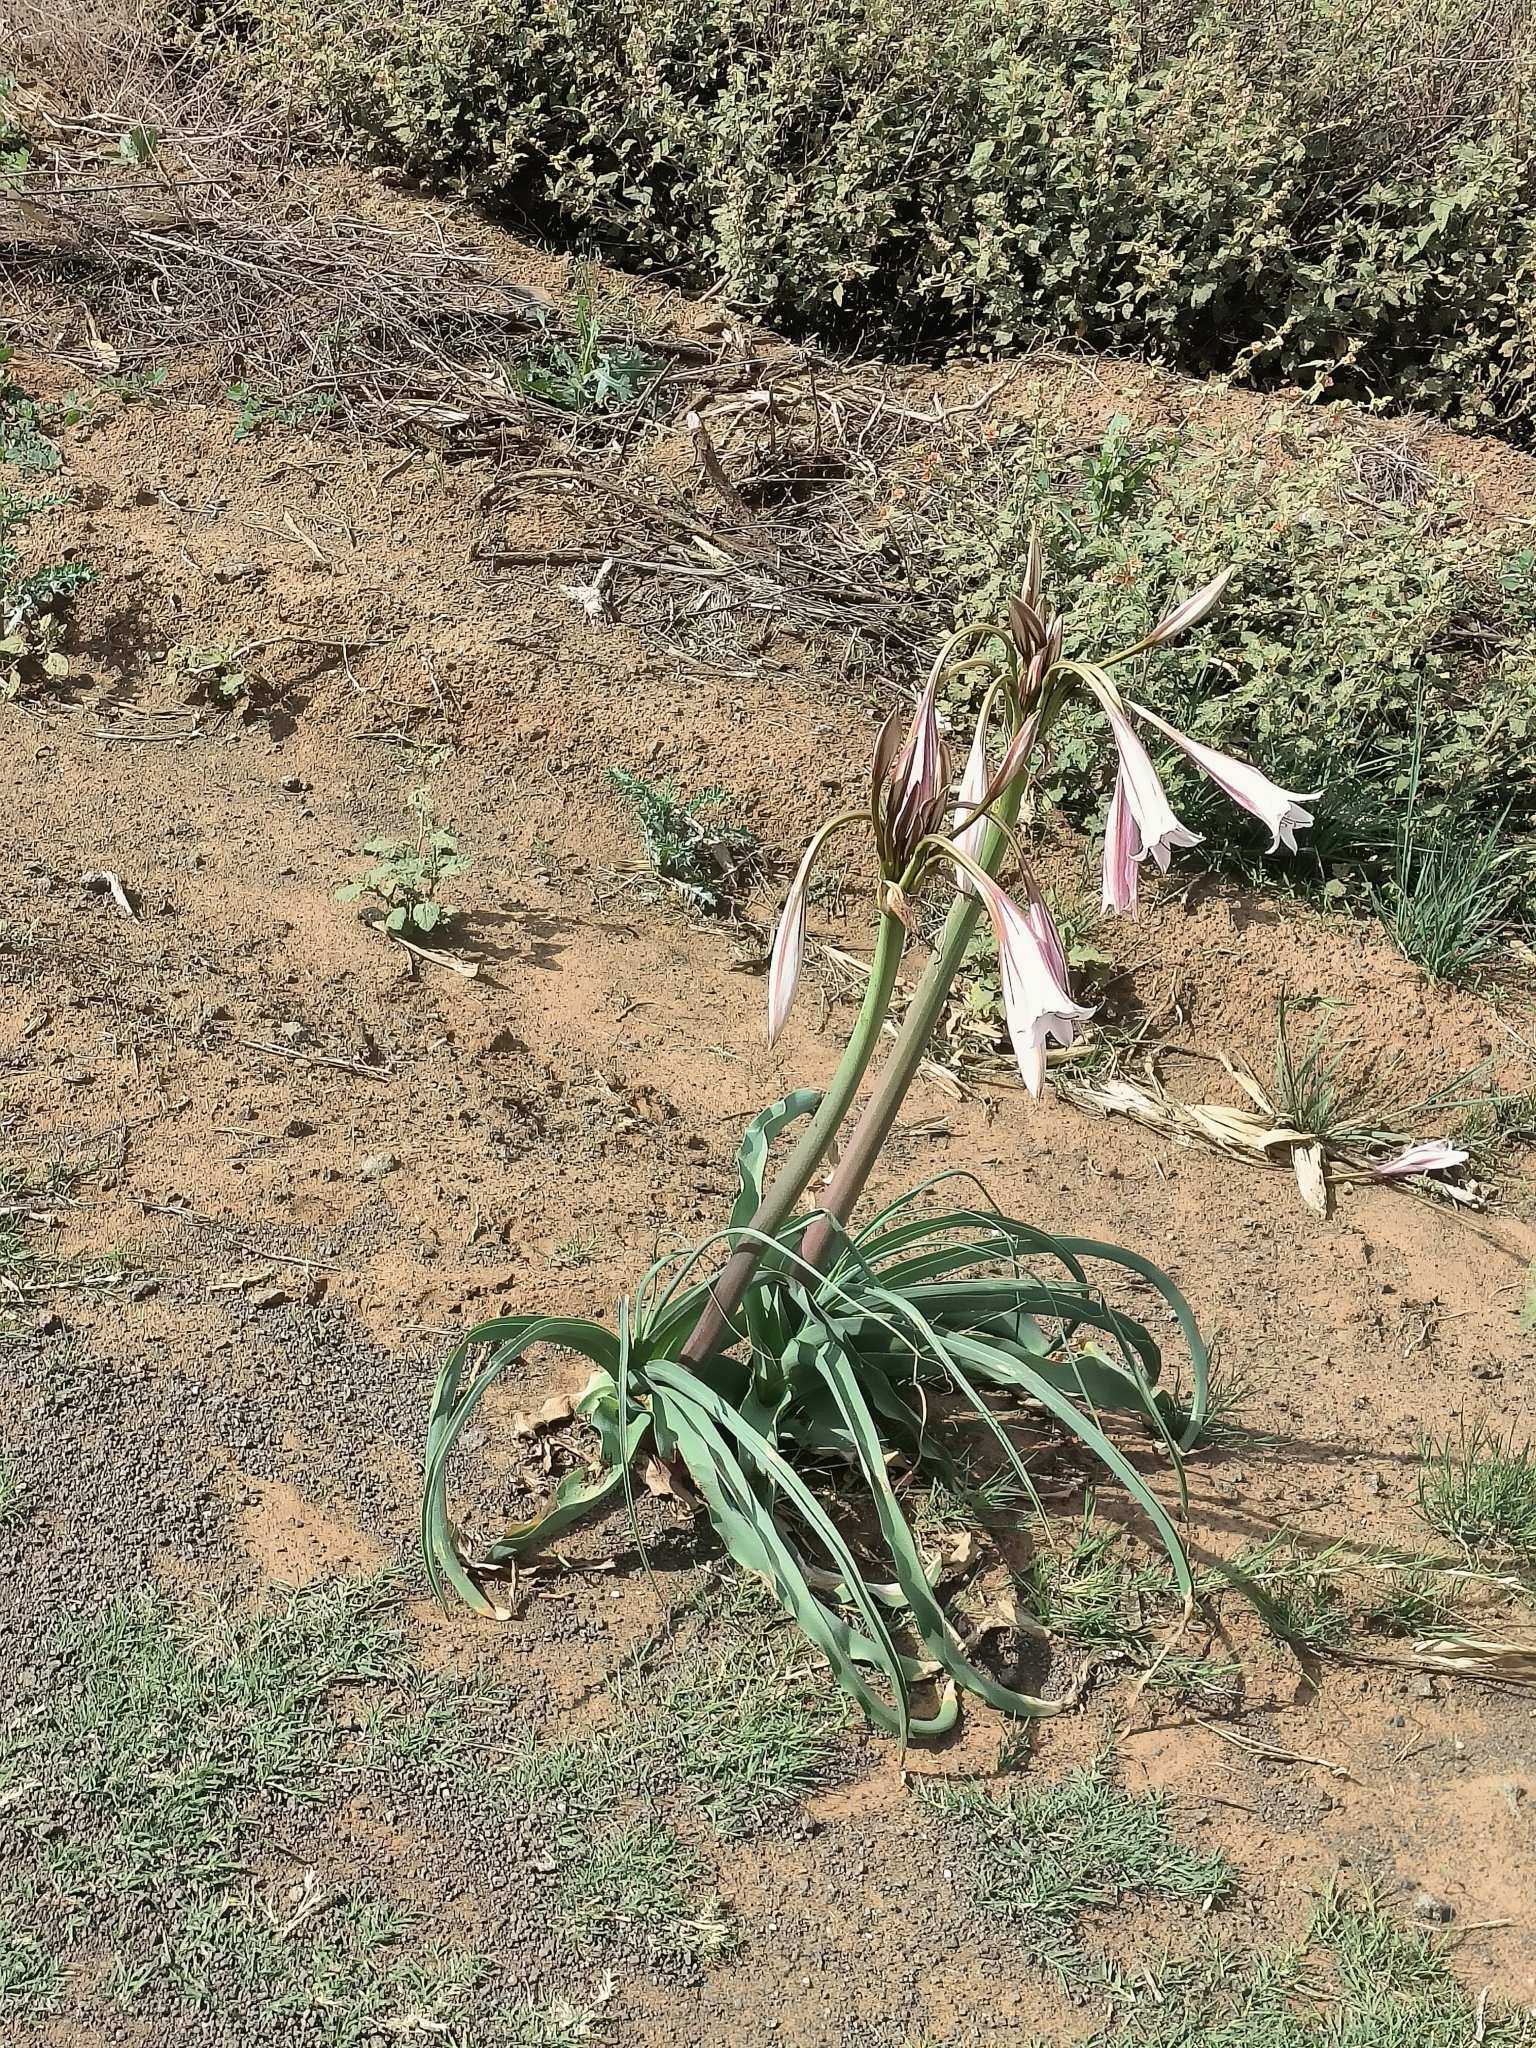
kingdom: Plantae
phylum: Tracheophyta
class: Liliopsida
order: Asparagales
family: Amaryllidaceae
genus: Crinum
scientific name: Crinum bulbispermum
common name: Hardy swamplily
